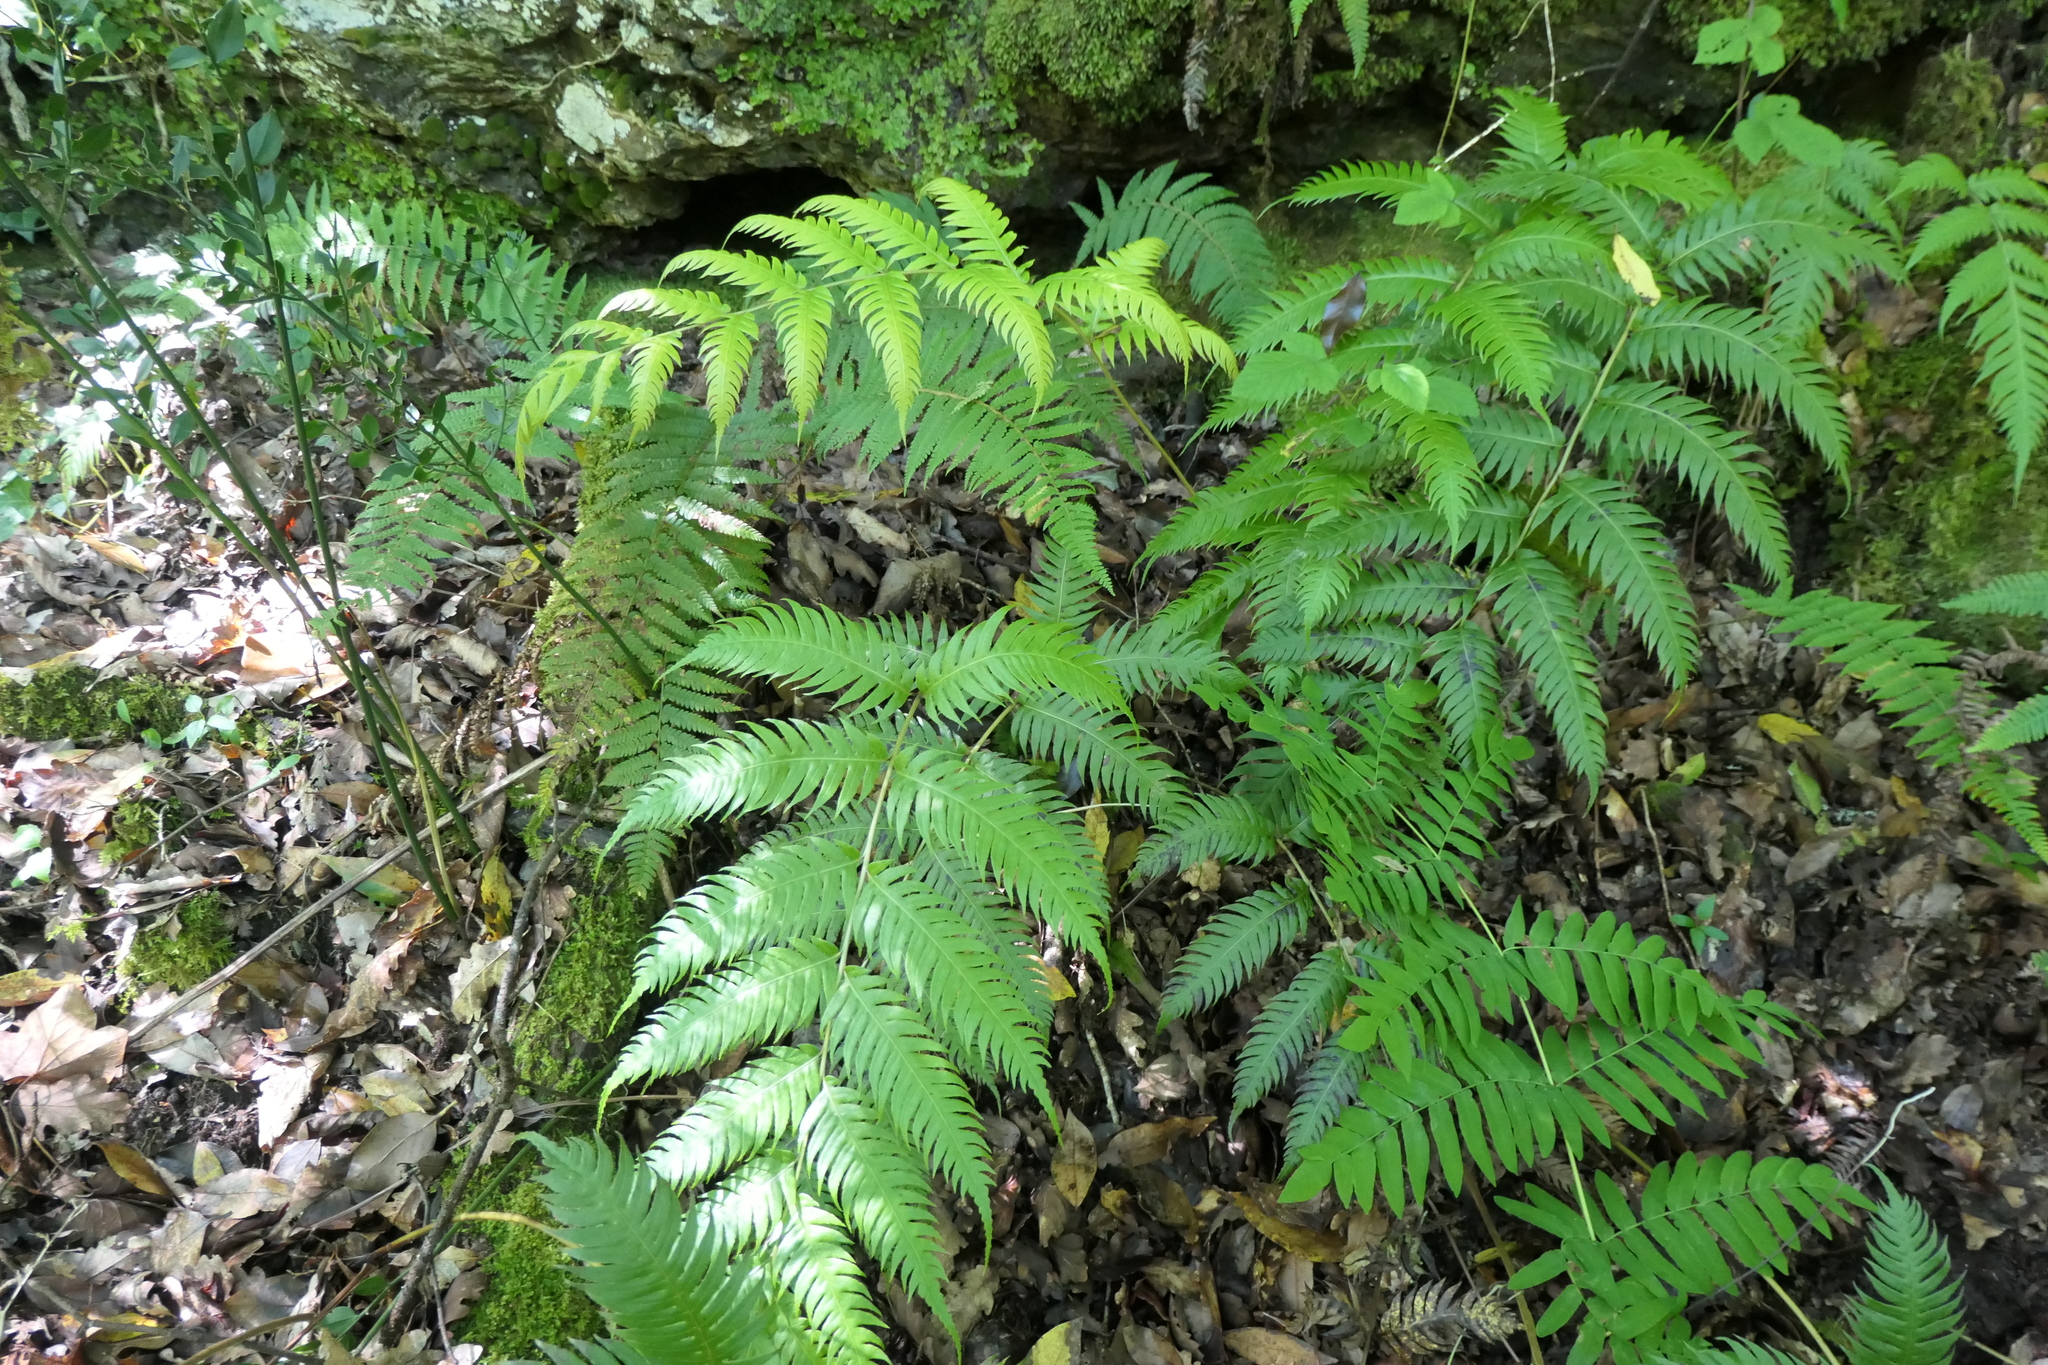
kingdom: Plantae
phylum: Tracheophyta
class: Polypodiopsida
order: Polypodiales
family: Blechnaceae
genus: Woodwardia
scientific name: Woodwardia radicans
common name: Rooting chainfern
